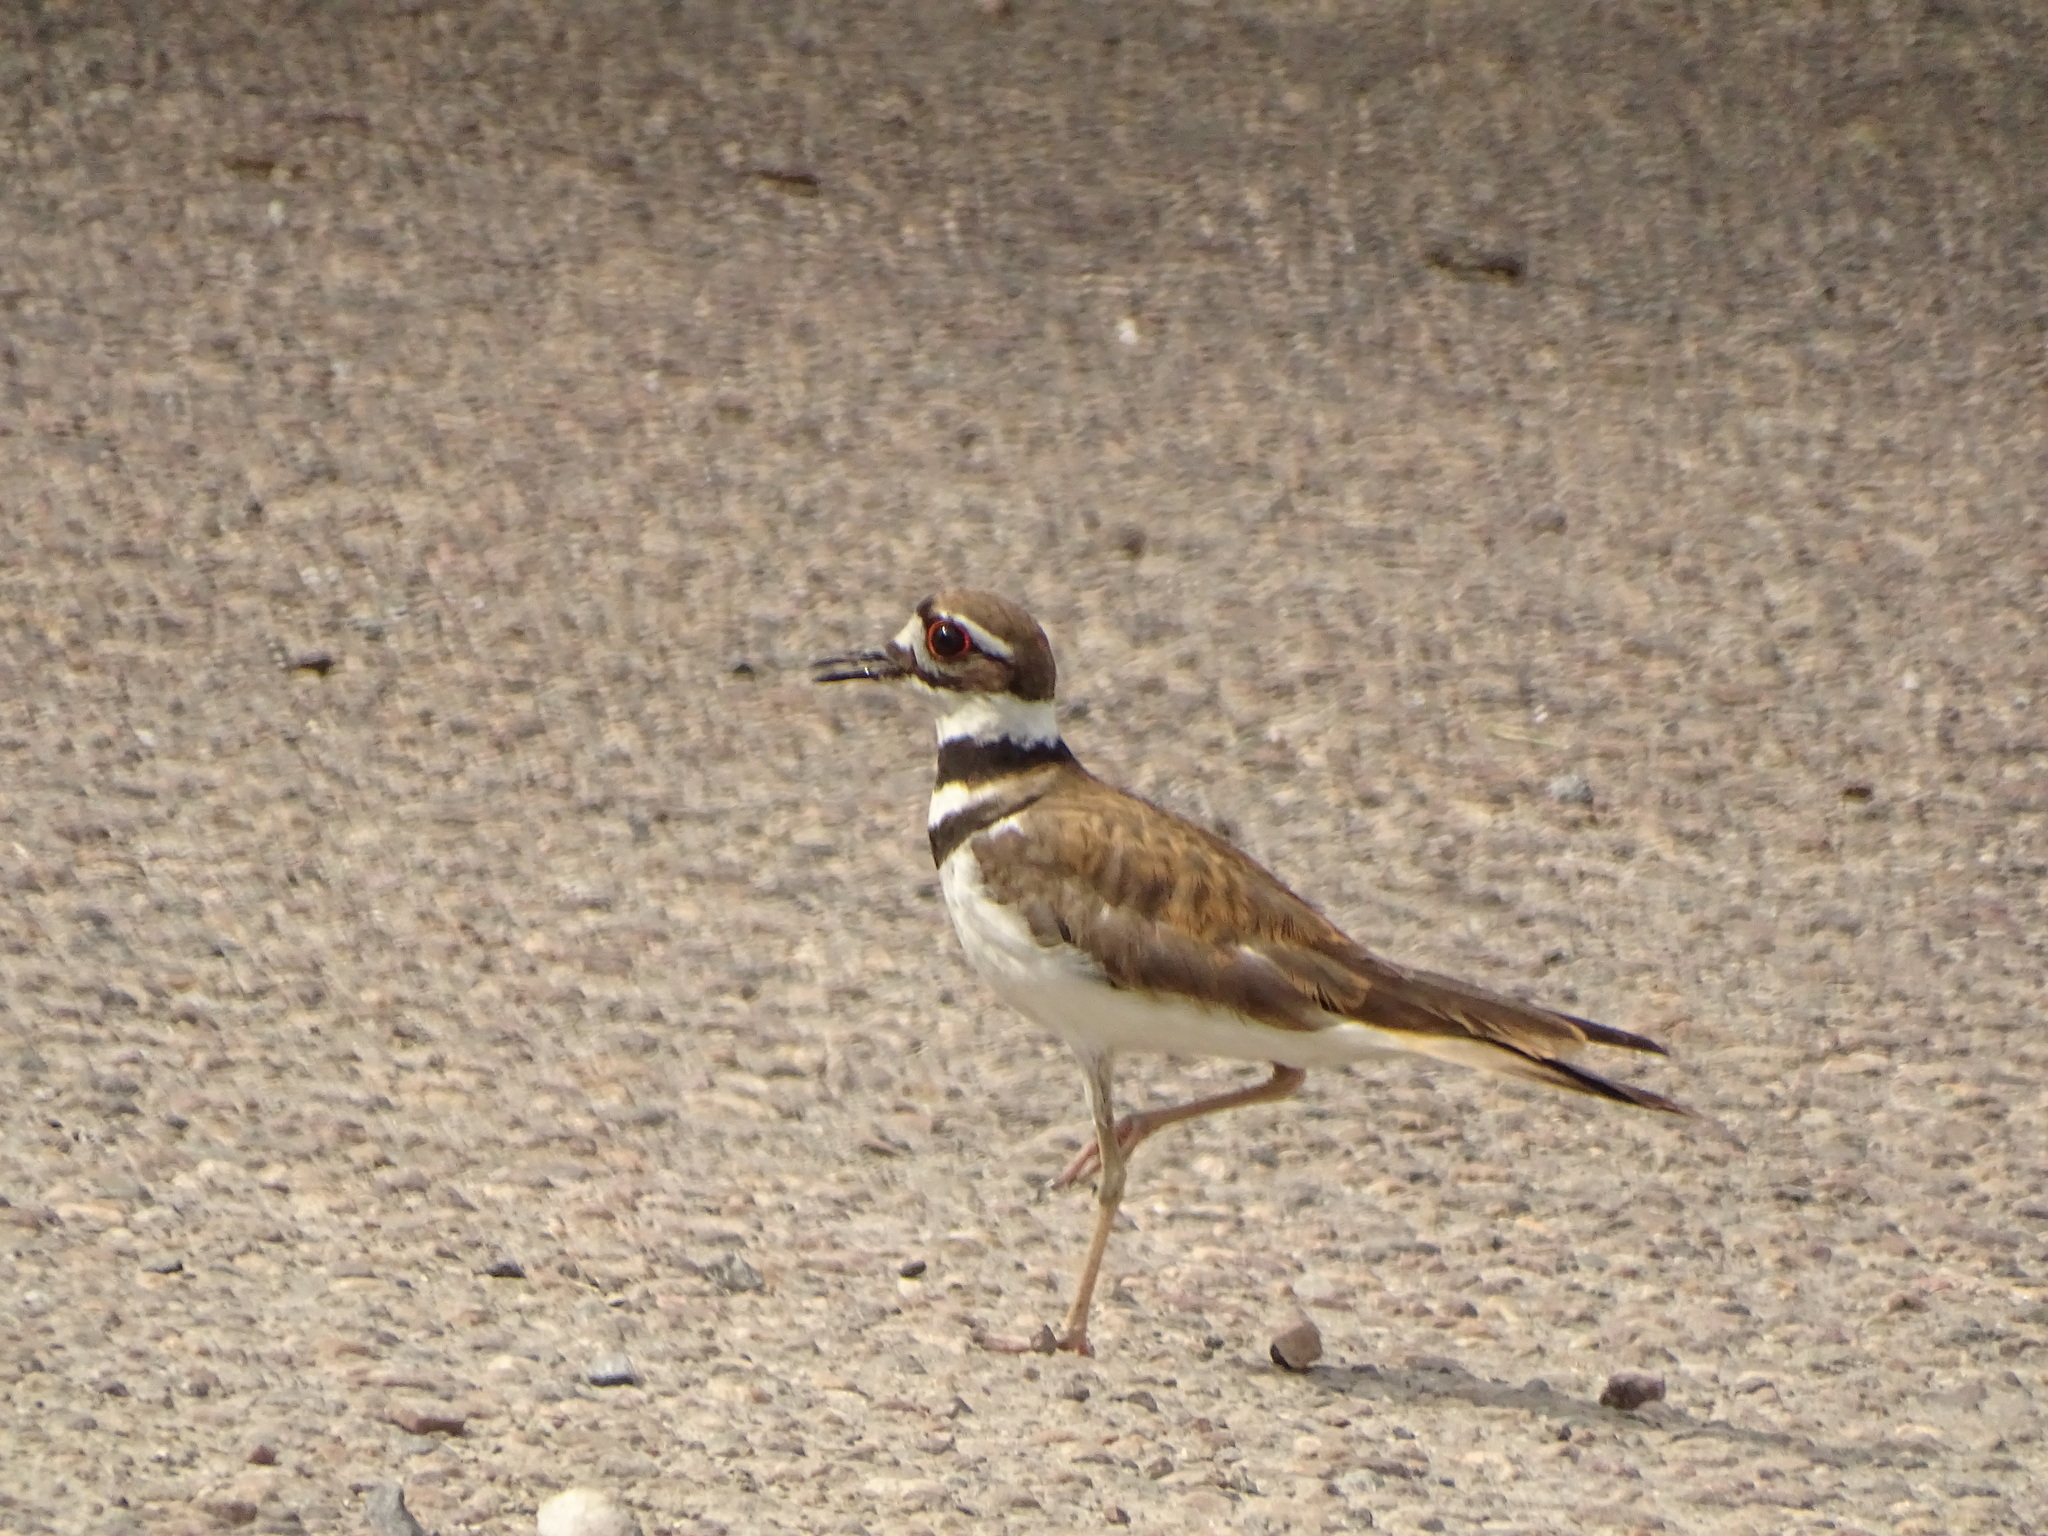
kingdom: Animalia
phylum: Chordata
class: Aves
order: Charadriiformes
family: Charadriidae
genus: Charadrius
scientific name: Charadrius vociferus
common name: Killdeer
